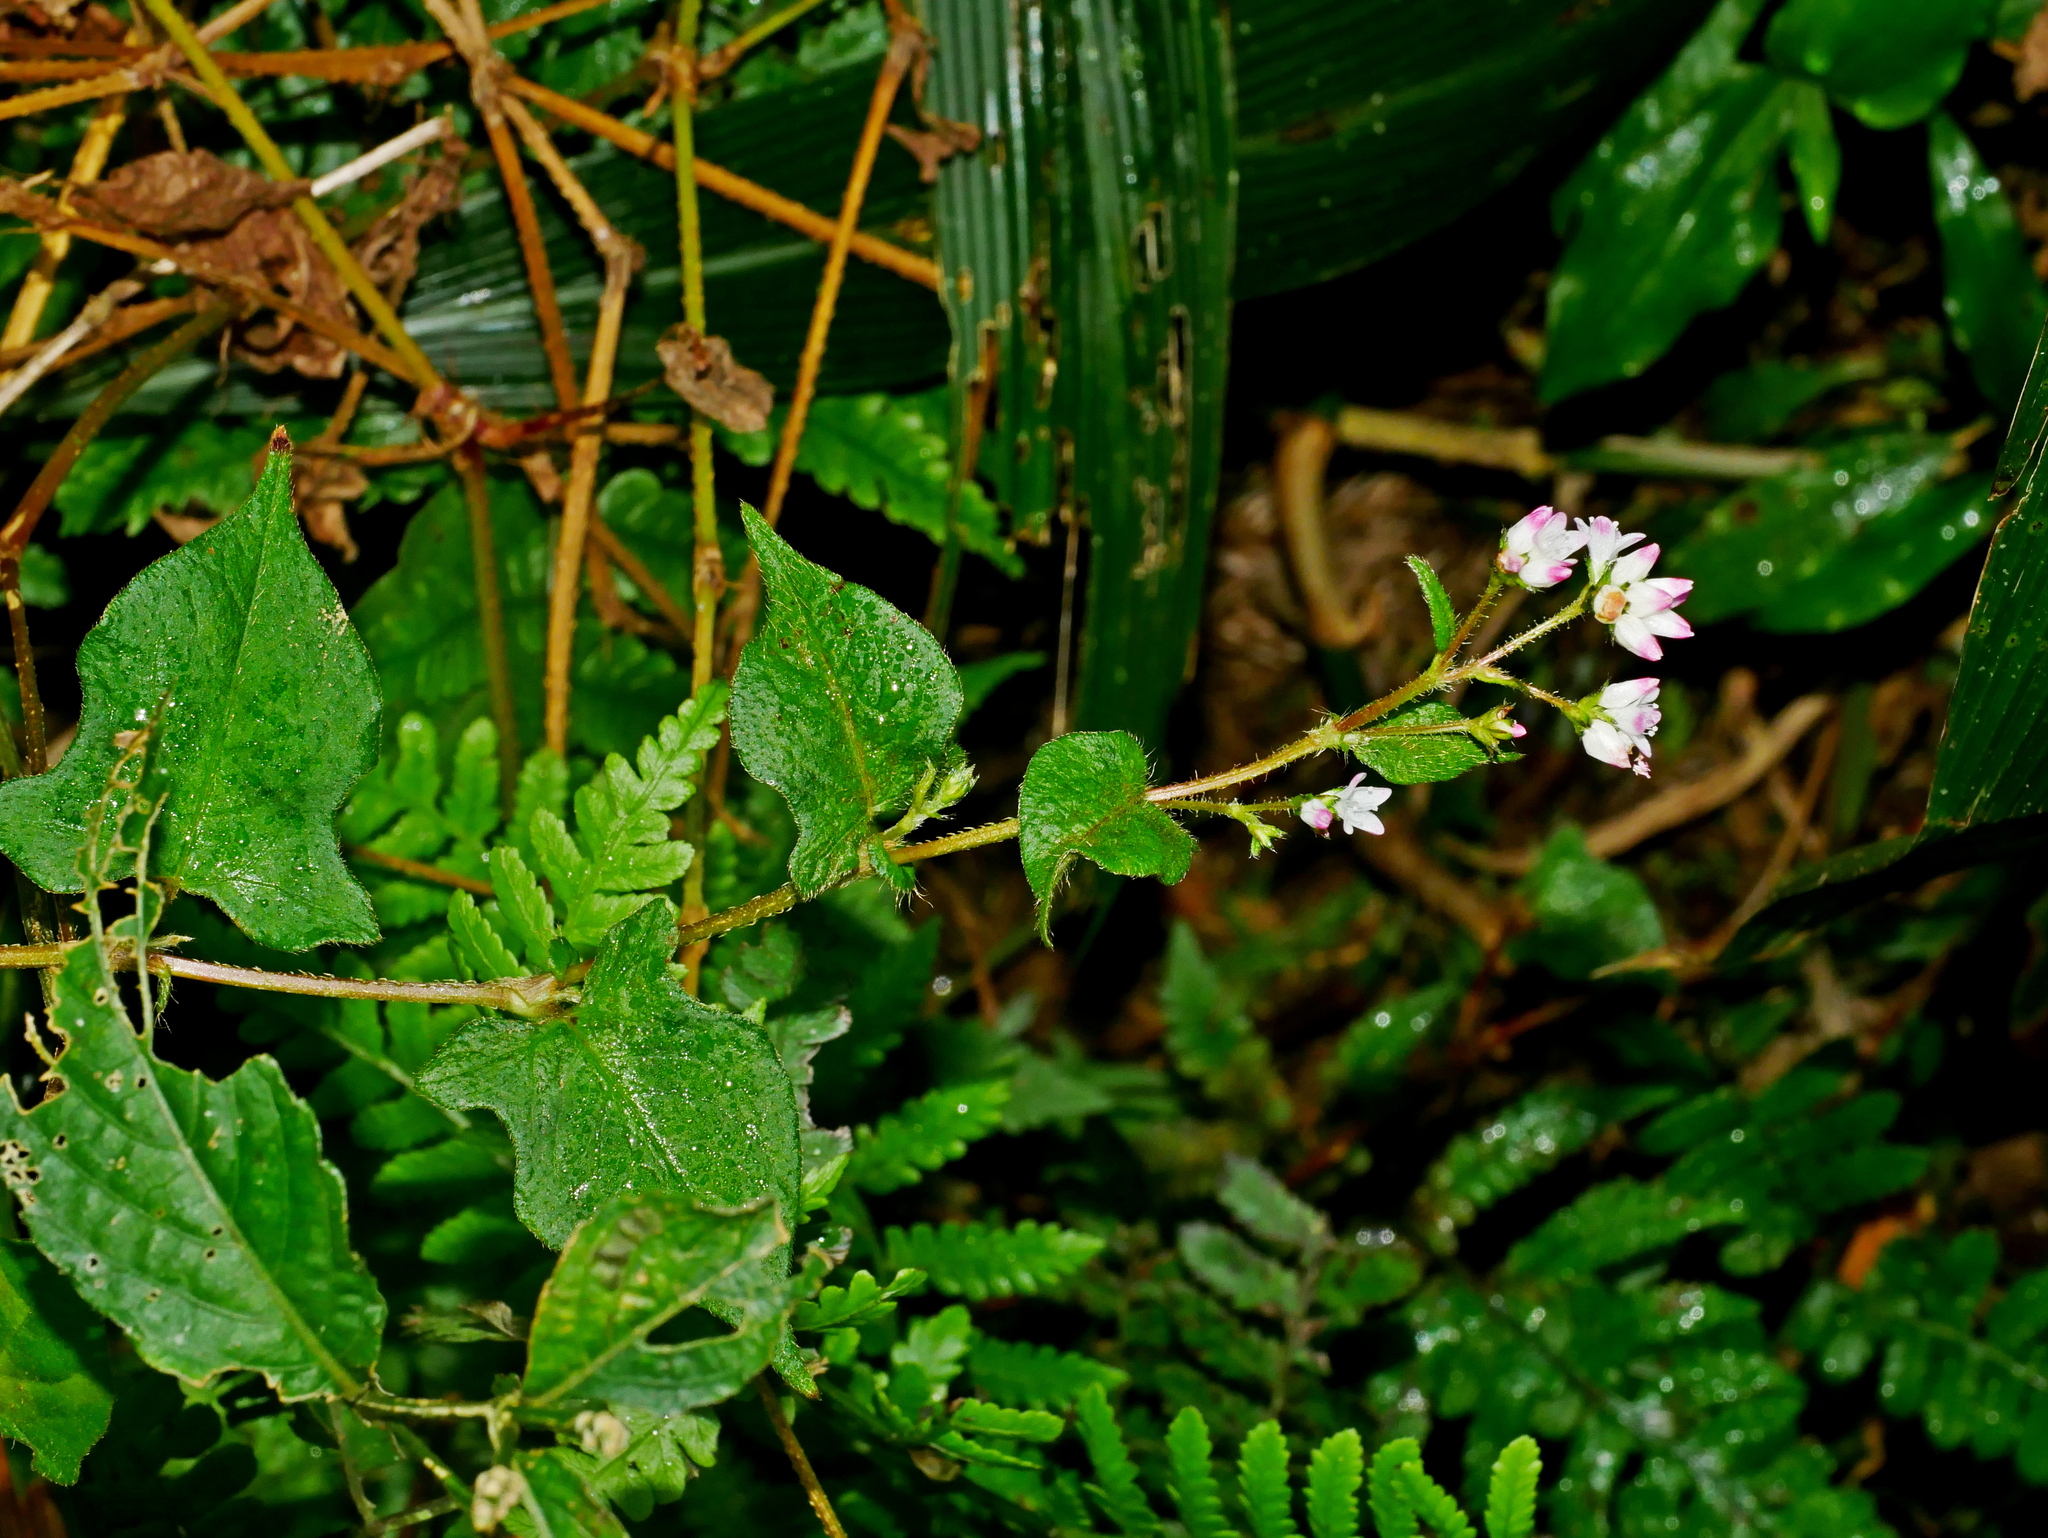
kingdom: Plantae
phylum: Tracheophyta
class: Magnoliopsida
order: Caryophyllales
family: Polygonaceae
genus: Persicaria
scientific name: Persicaria biconvexa
